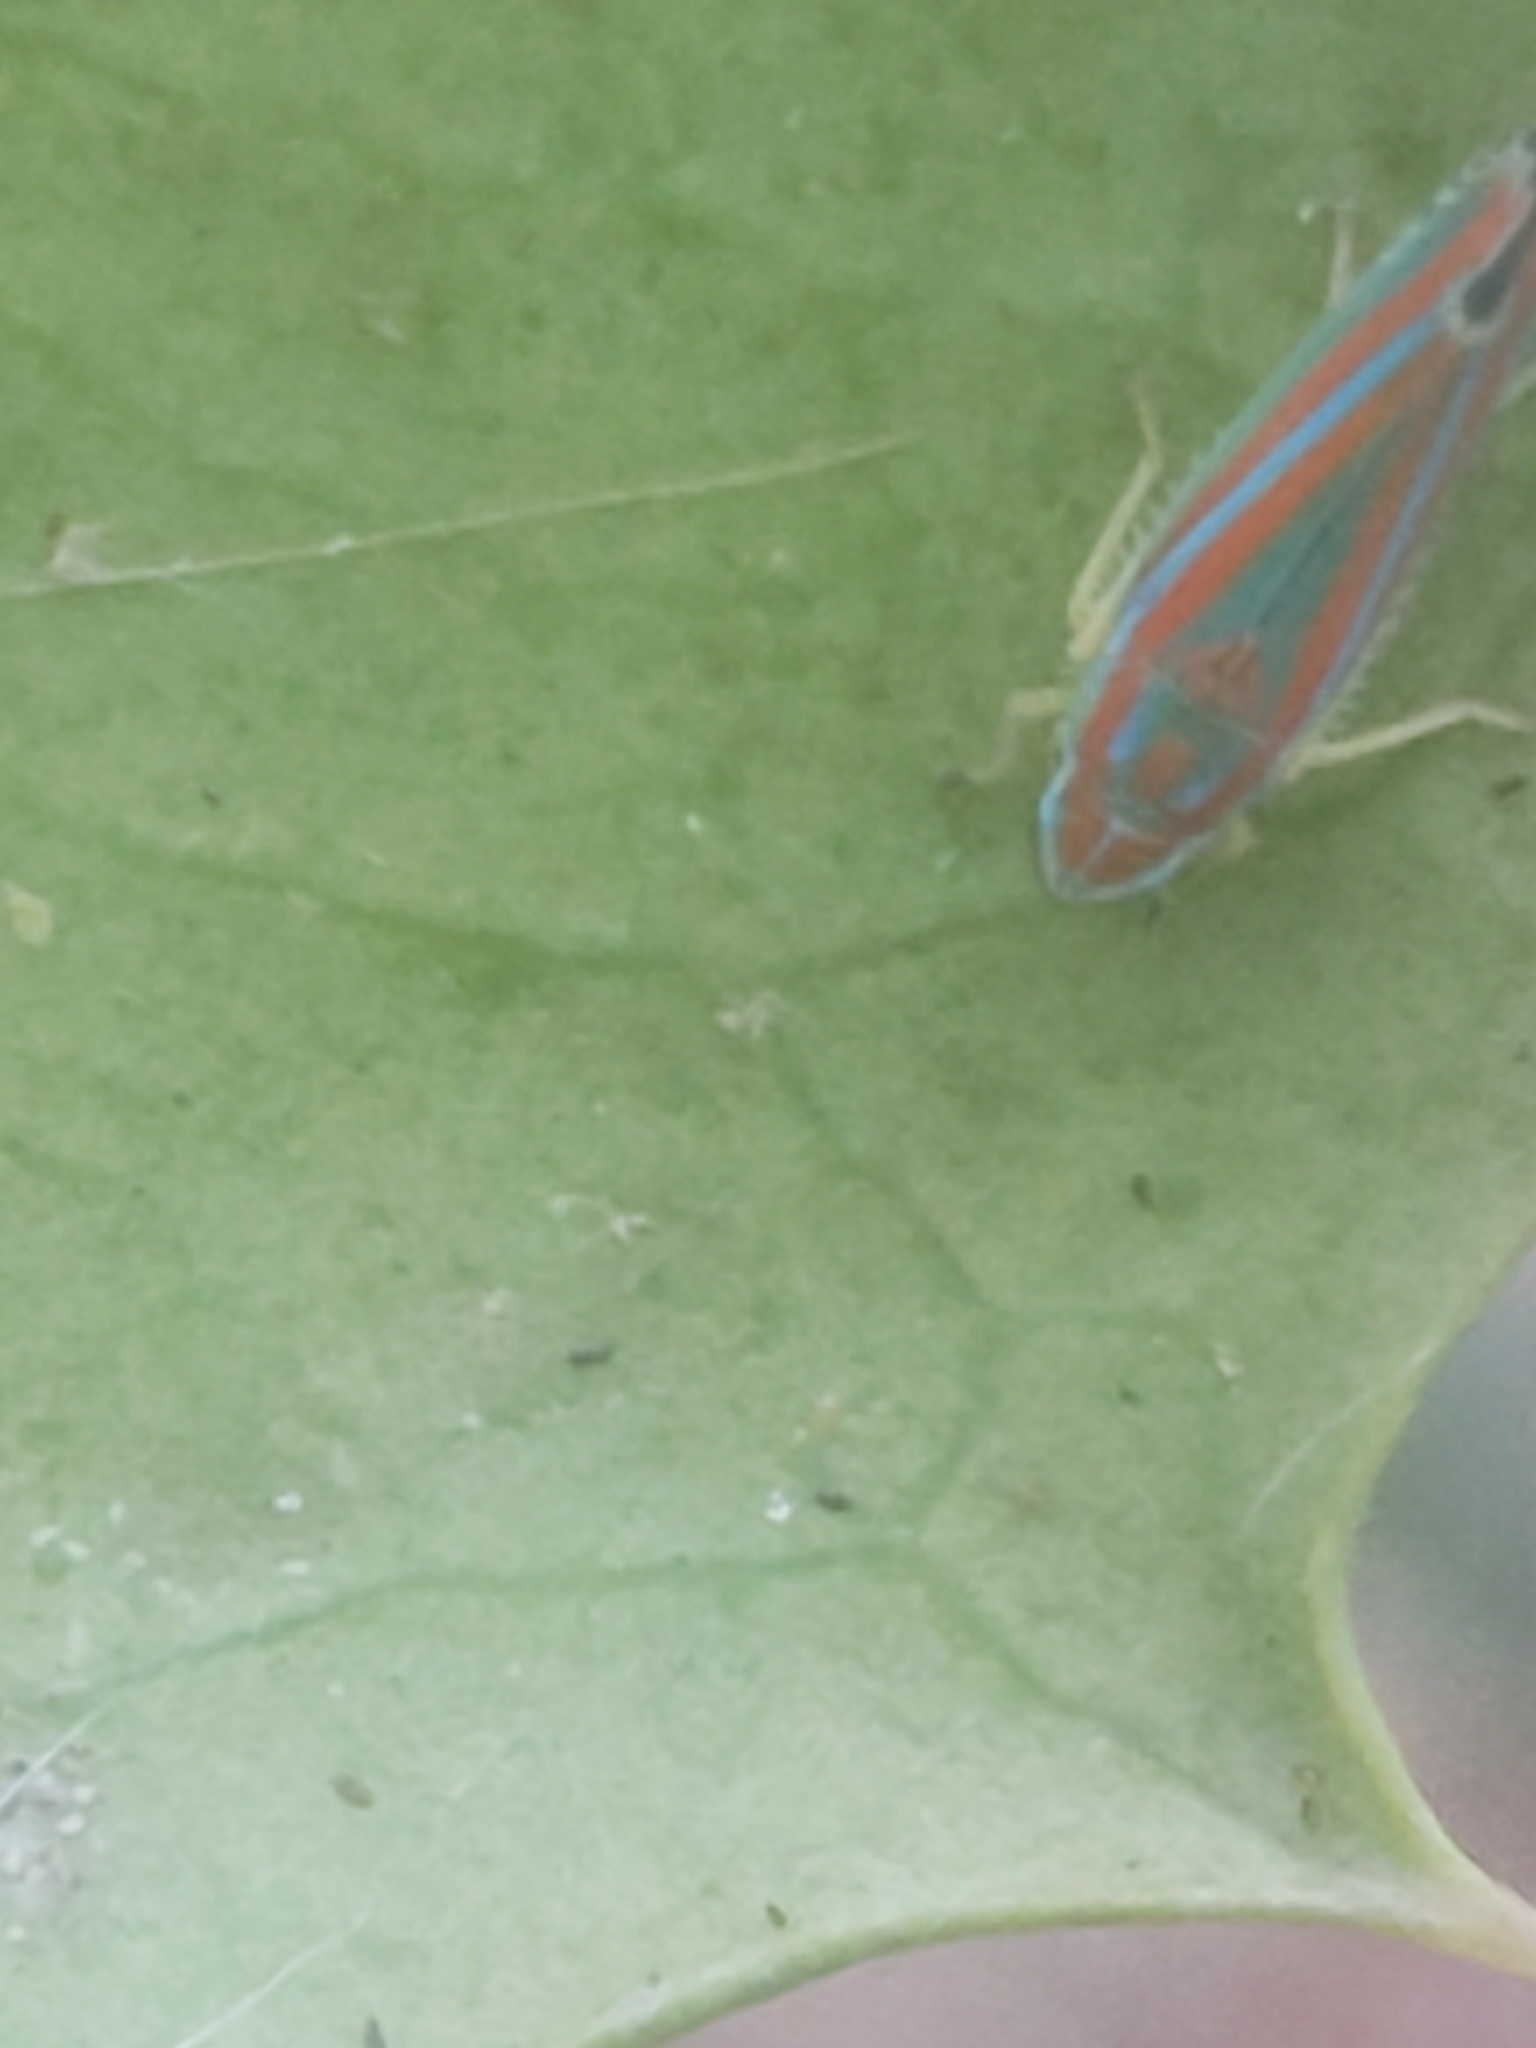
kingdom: Animalia
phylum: Arthropoda
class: Insecta
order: Hemiptera
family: Cicadellidae
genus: Graphocephala
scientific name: Graphocephala versuta
